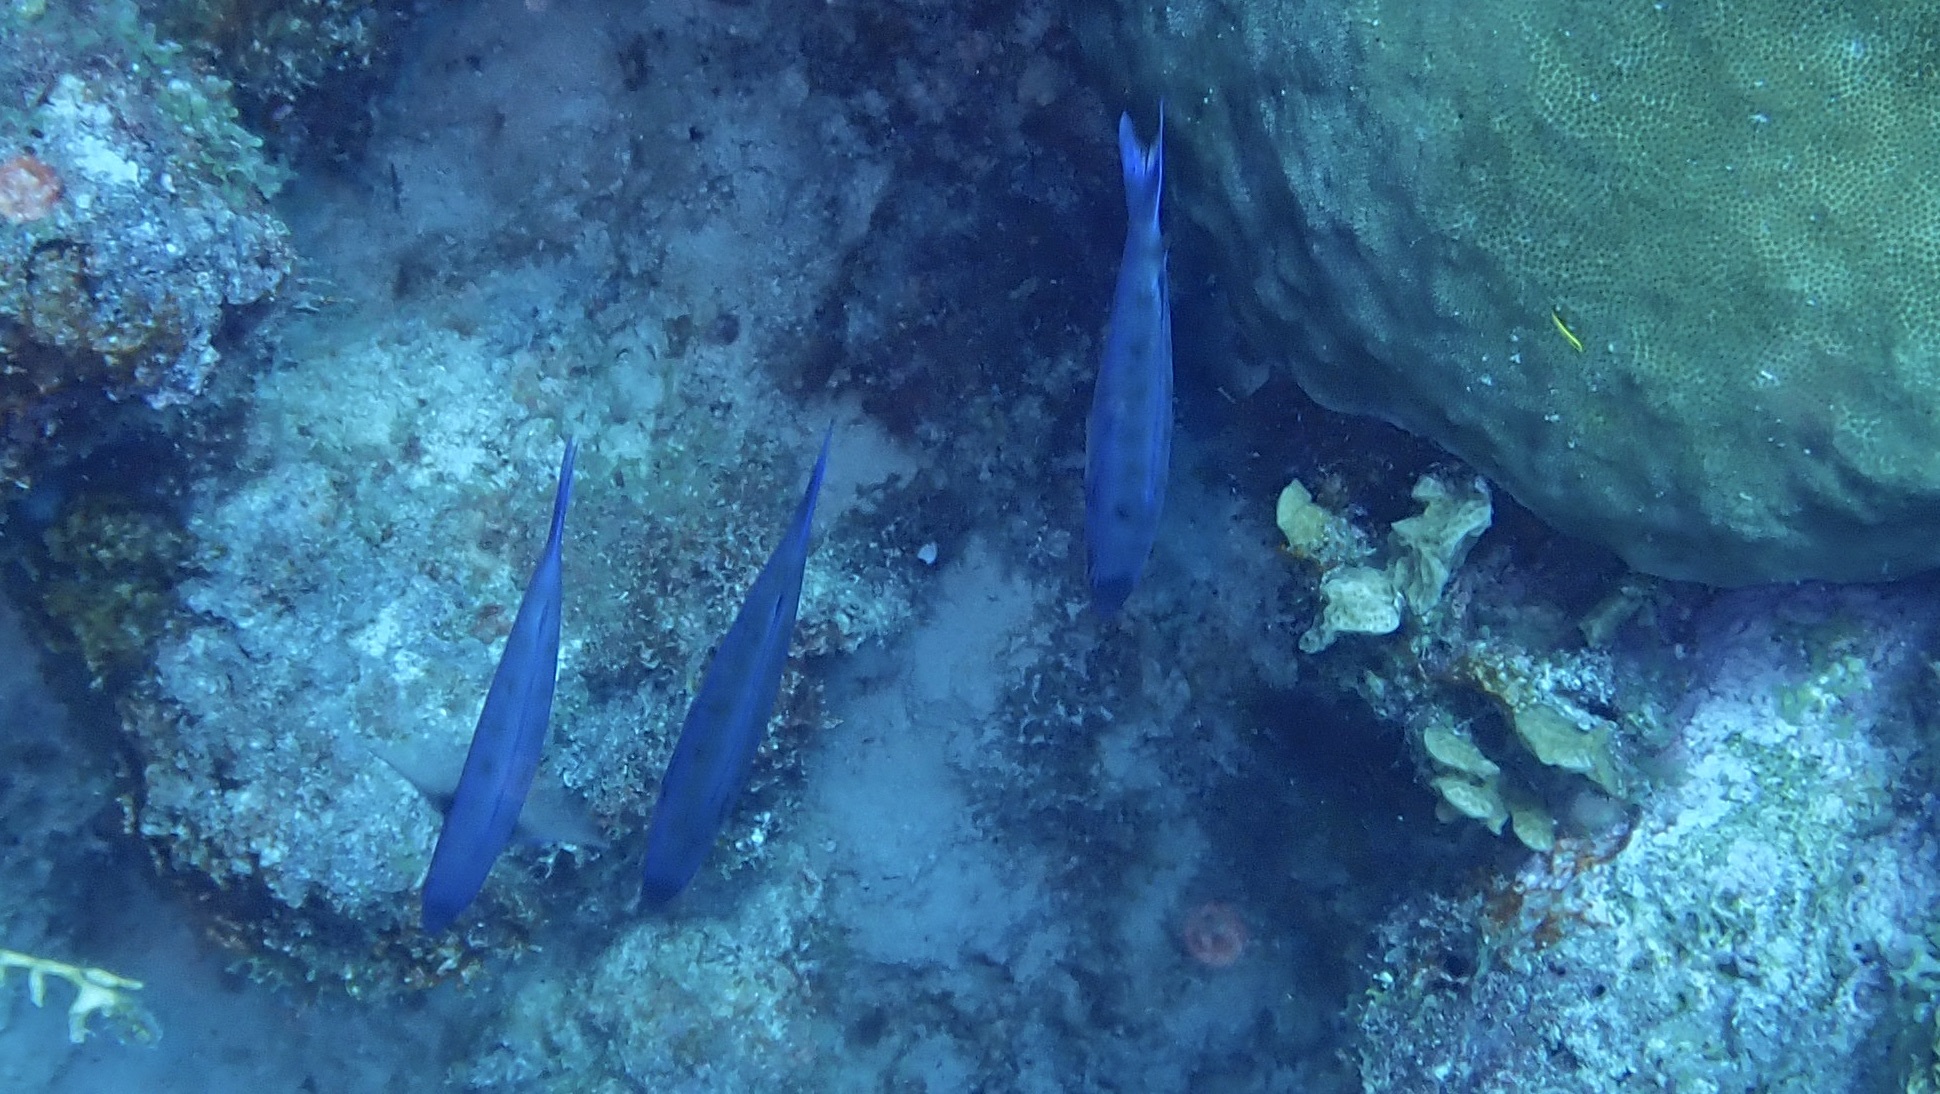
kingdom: Animalia
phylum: Chordata
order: Perciformes
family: Labridae
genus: Bodianus
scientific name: Bodianus
